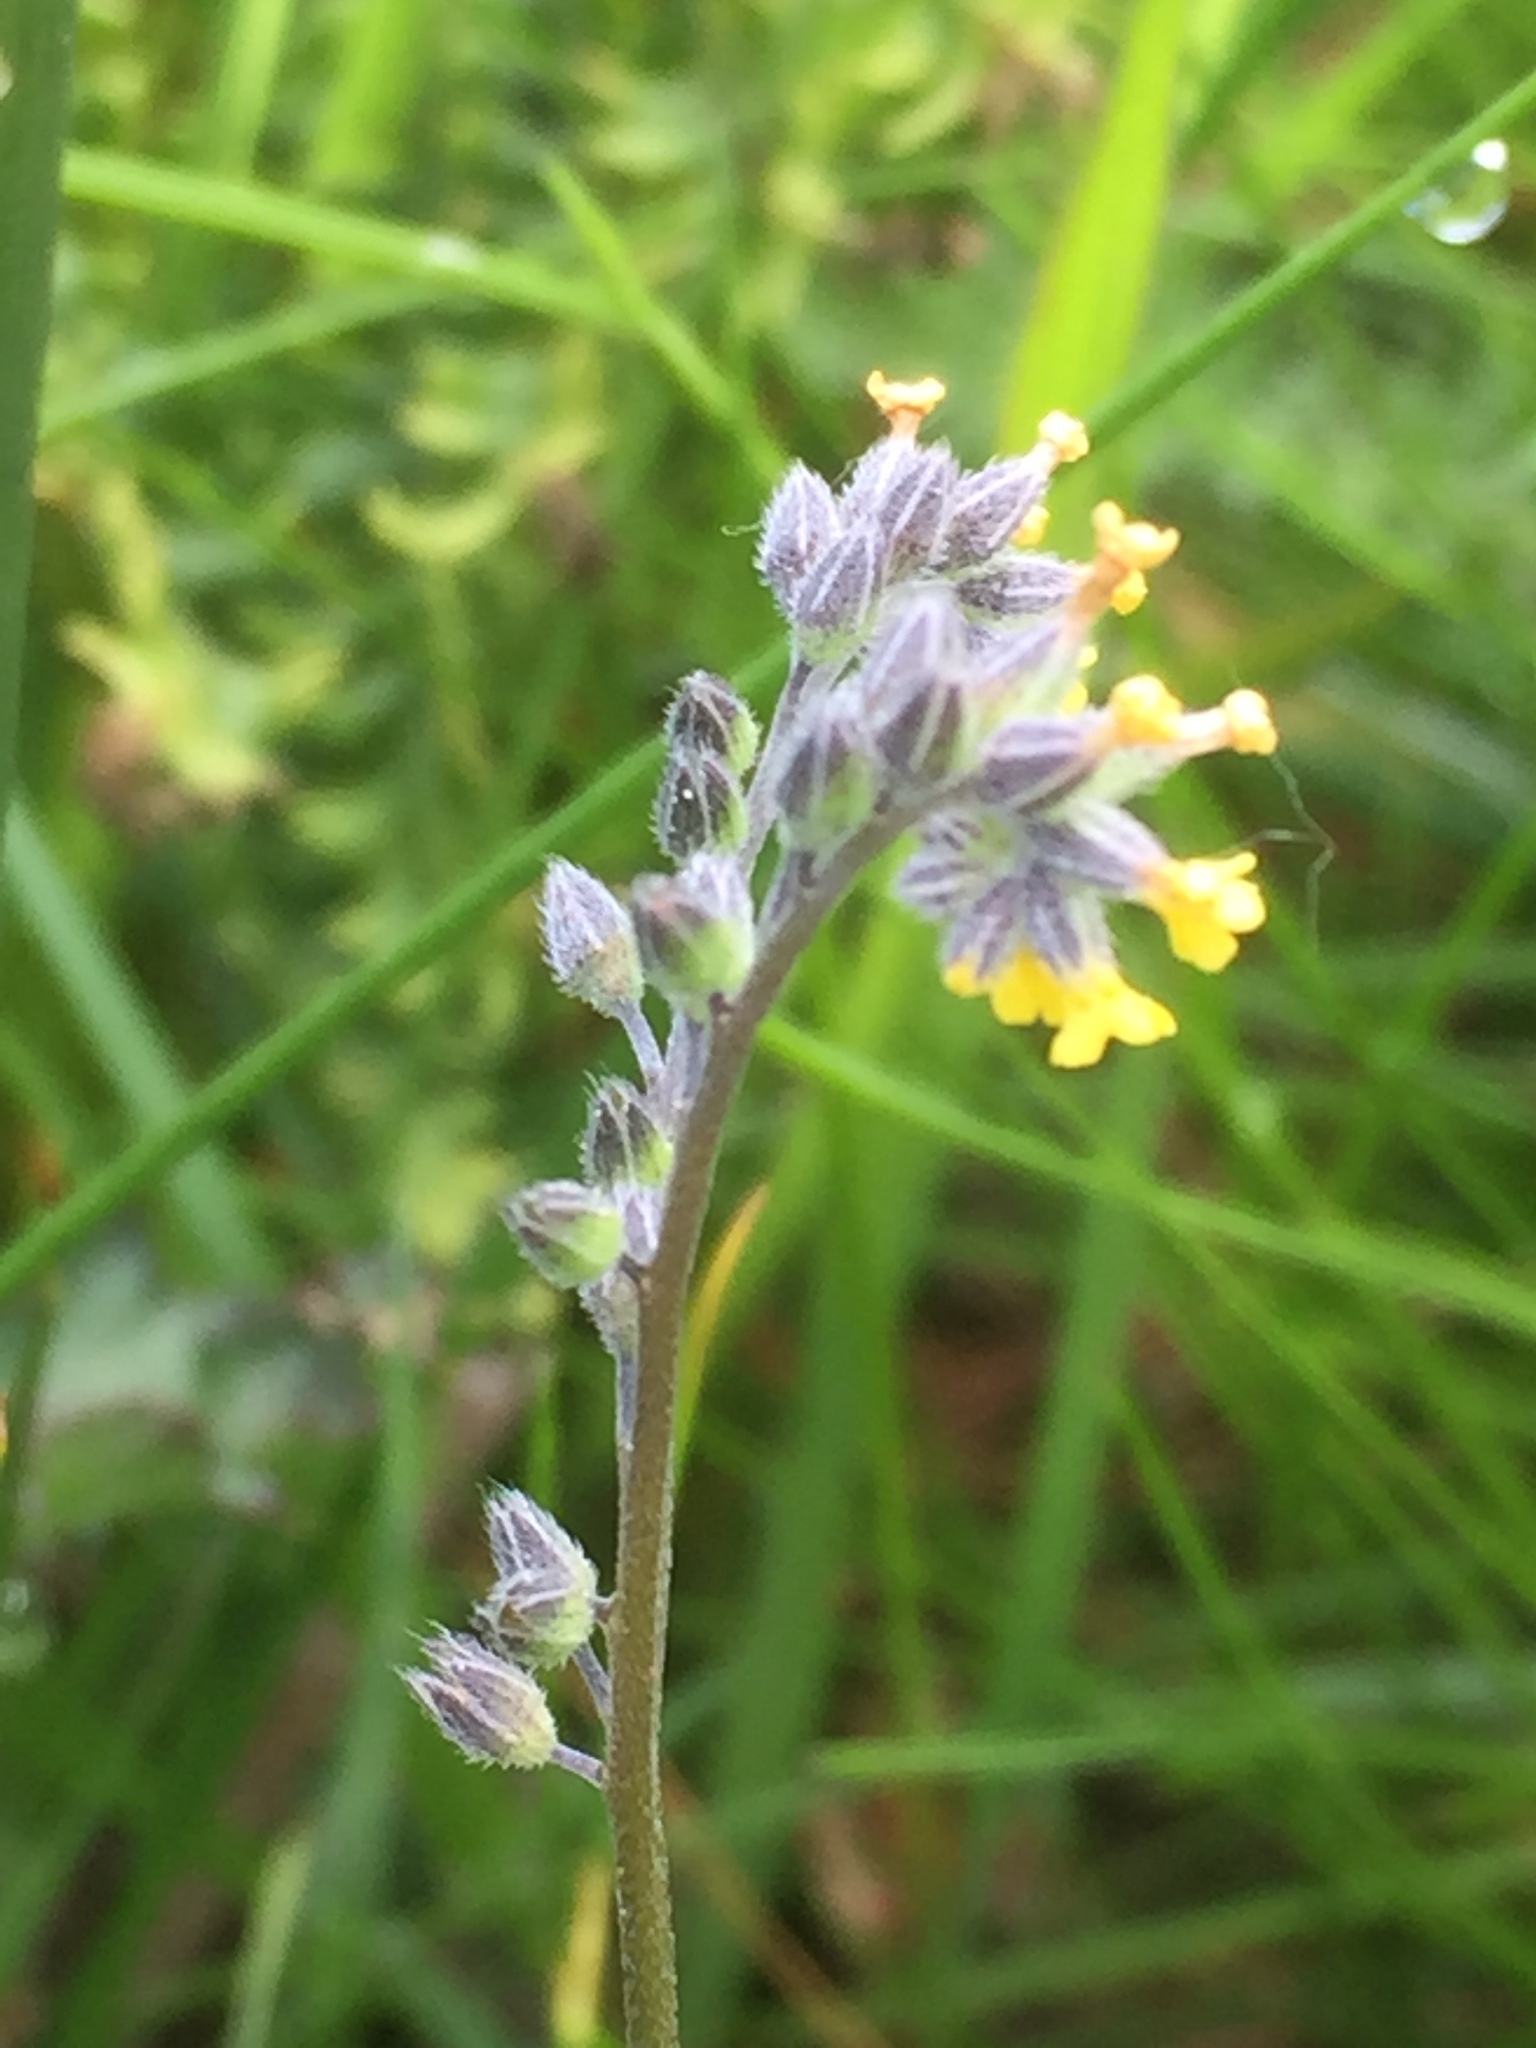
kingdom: Plantae
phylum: Tracheophyta
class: Magnoliopsida
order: Boraginales
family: Boraginaceae
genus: Myosotis
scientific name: Myosotis persoonii
